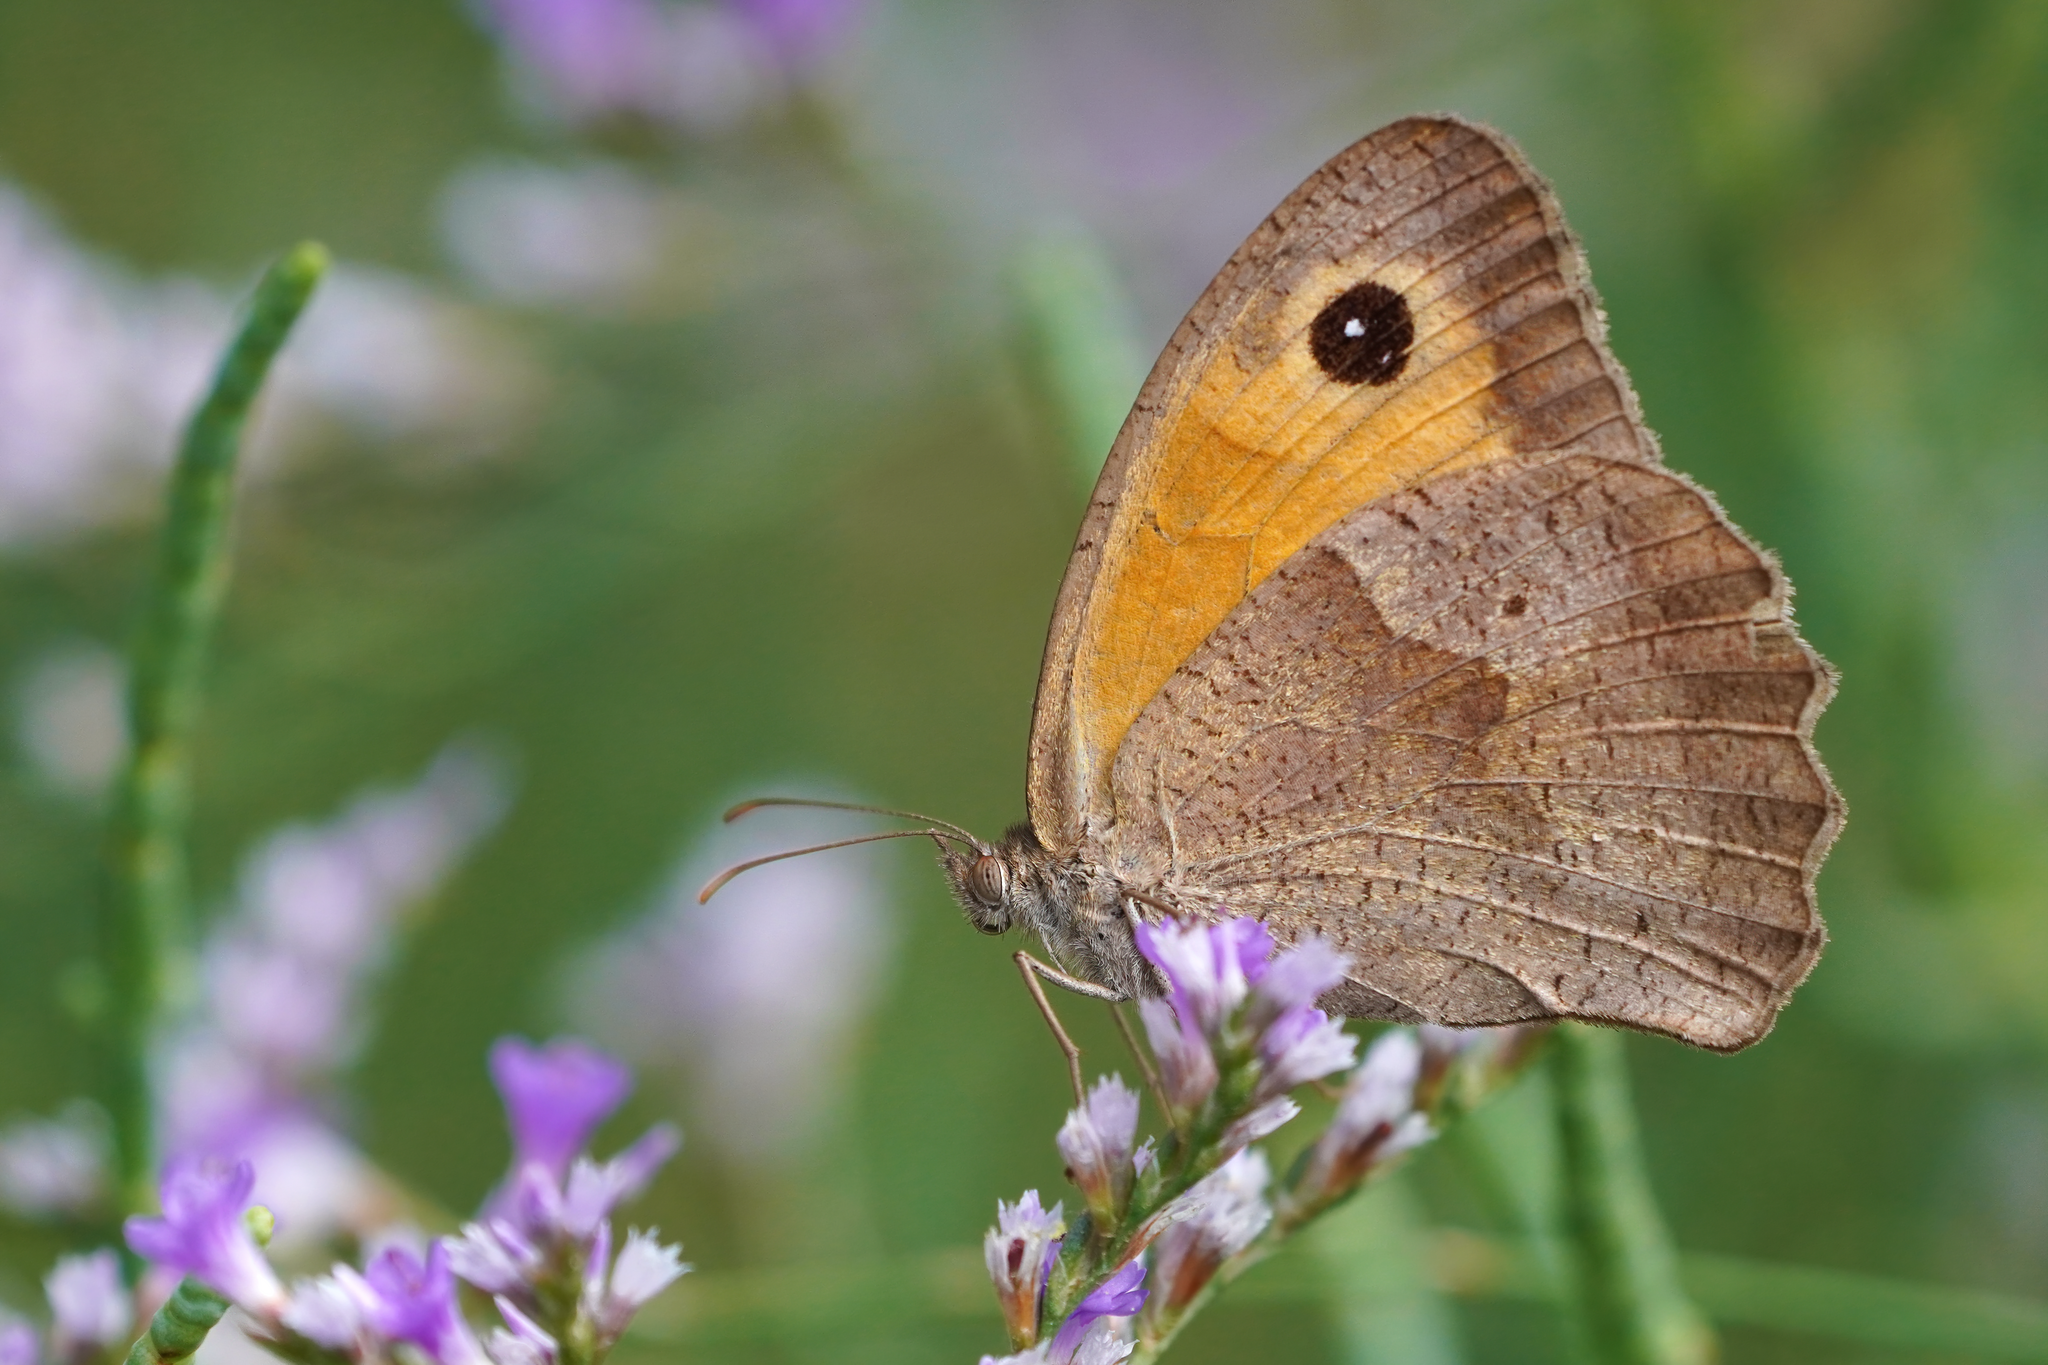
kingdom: Animalia
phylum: Arthropoda
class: Insecta
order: Lepidoptera
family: Nymphalidae
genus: Maniola
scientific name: Maniola jurtina
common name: Meadow brown
